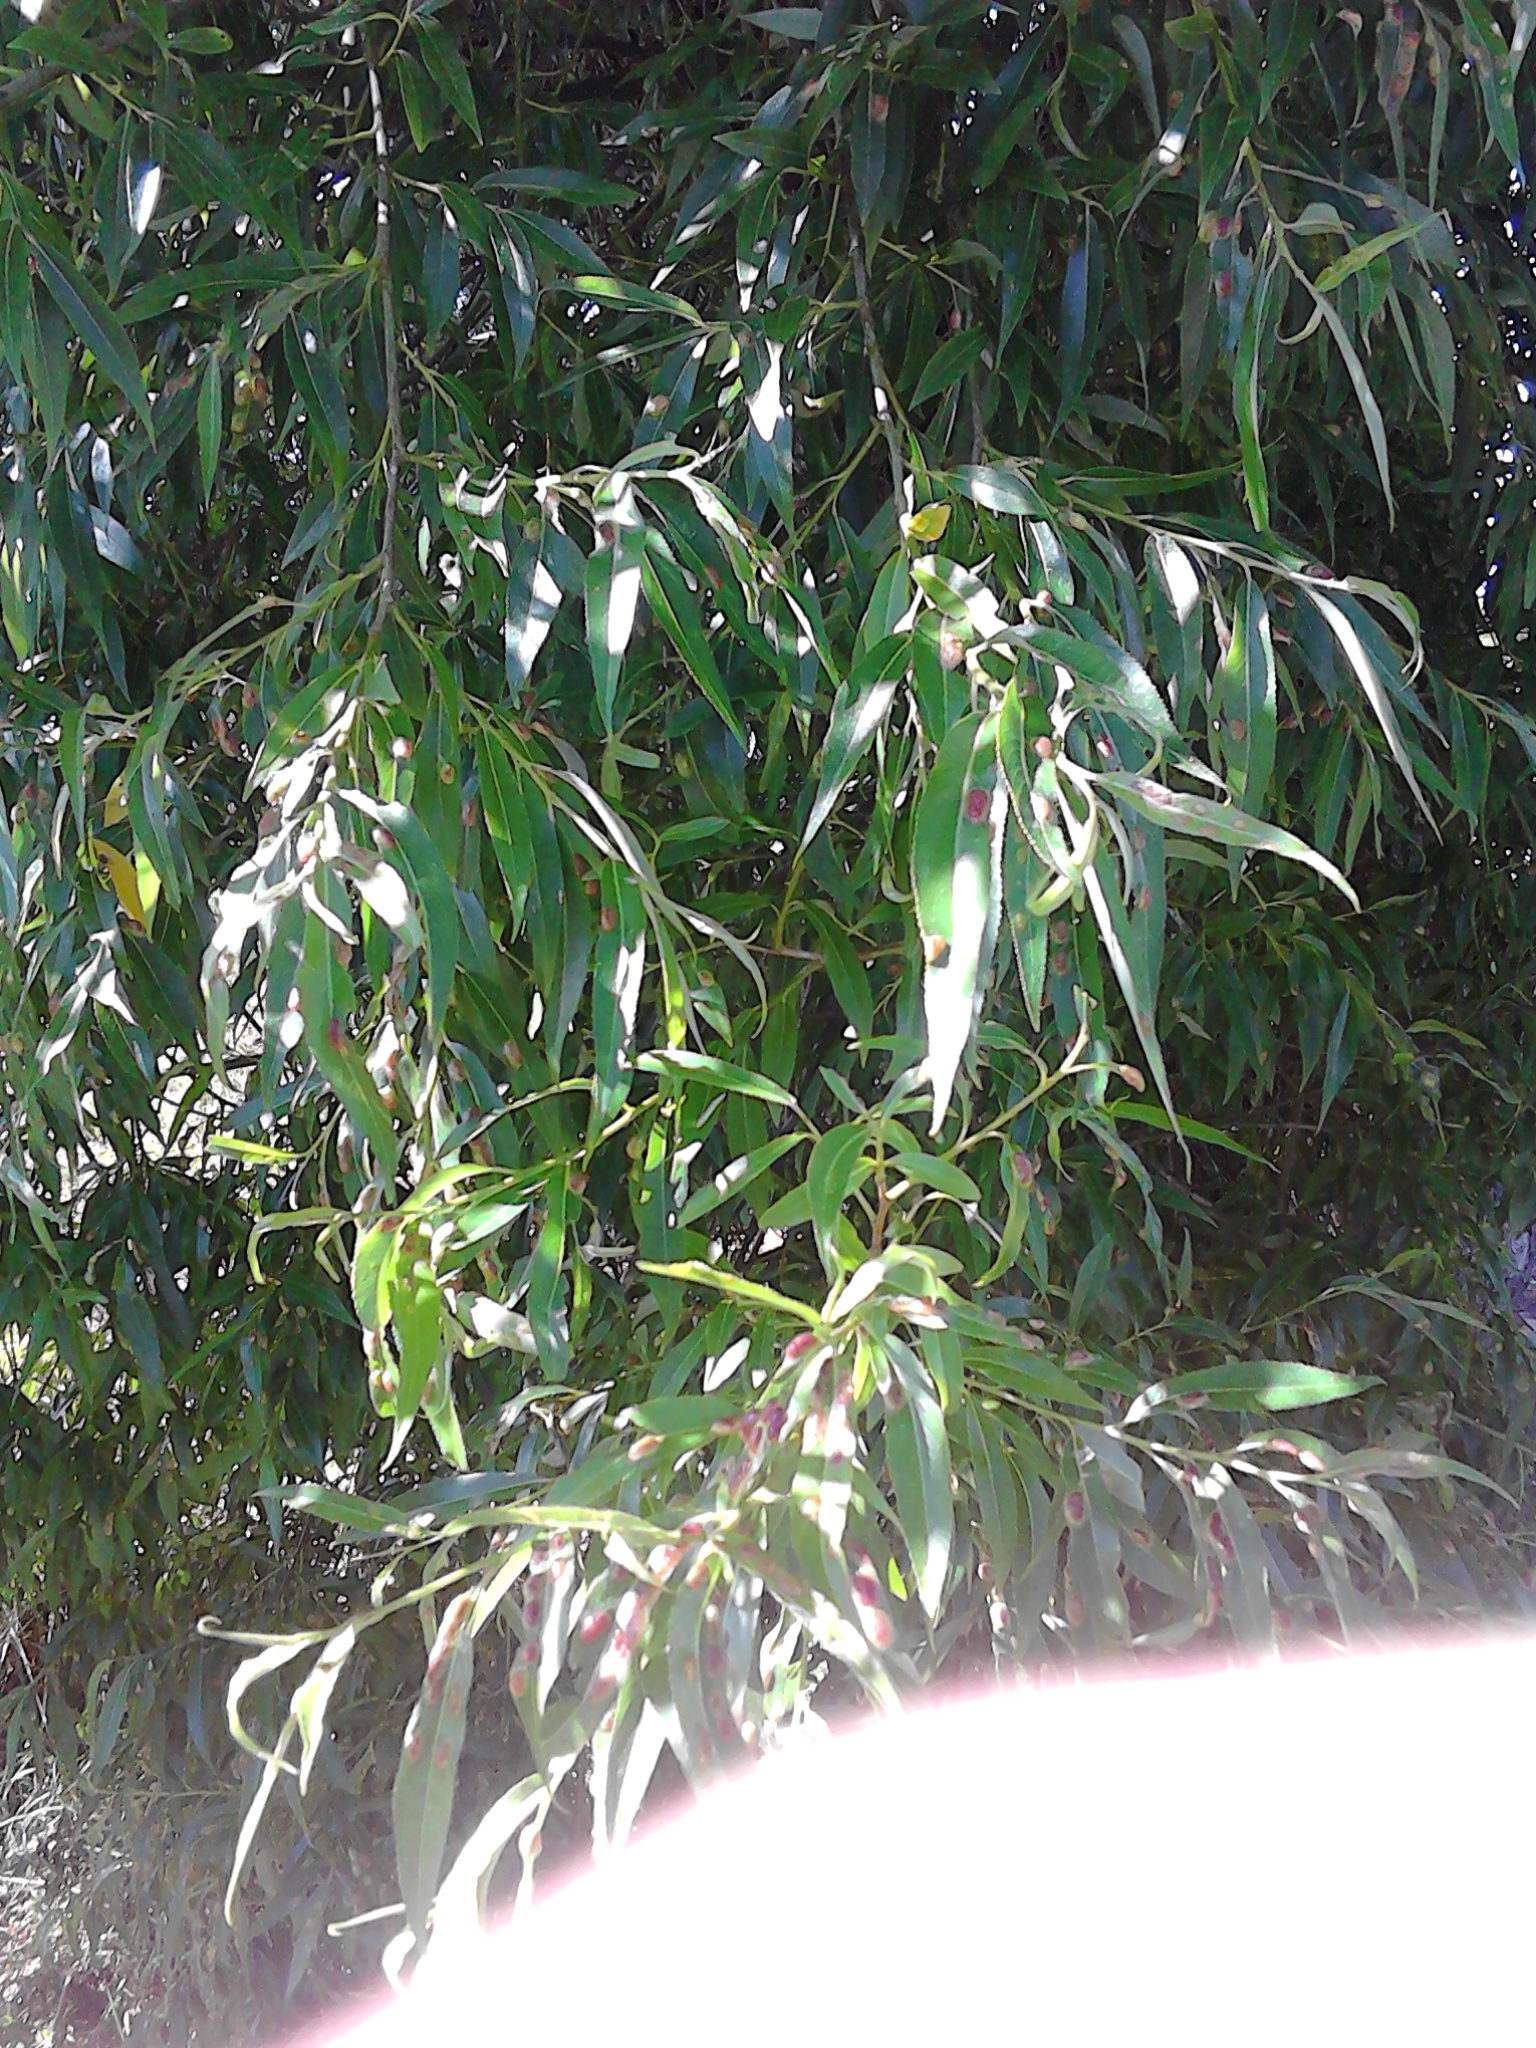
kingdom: Plantae
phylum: Tracheophyta
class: Magnoliopsida
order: Malpighiales
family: Salicaceae
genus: Salix
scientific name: Salix fragilis
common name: Crack willow
